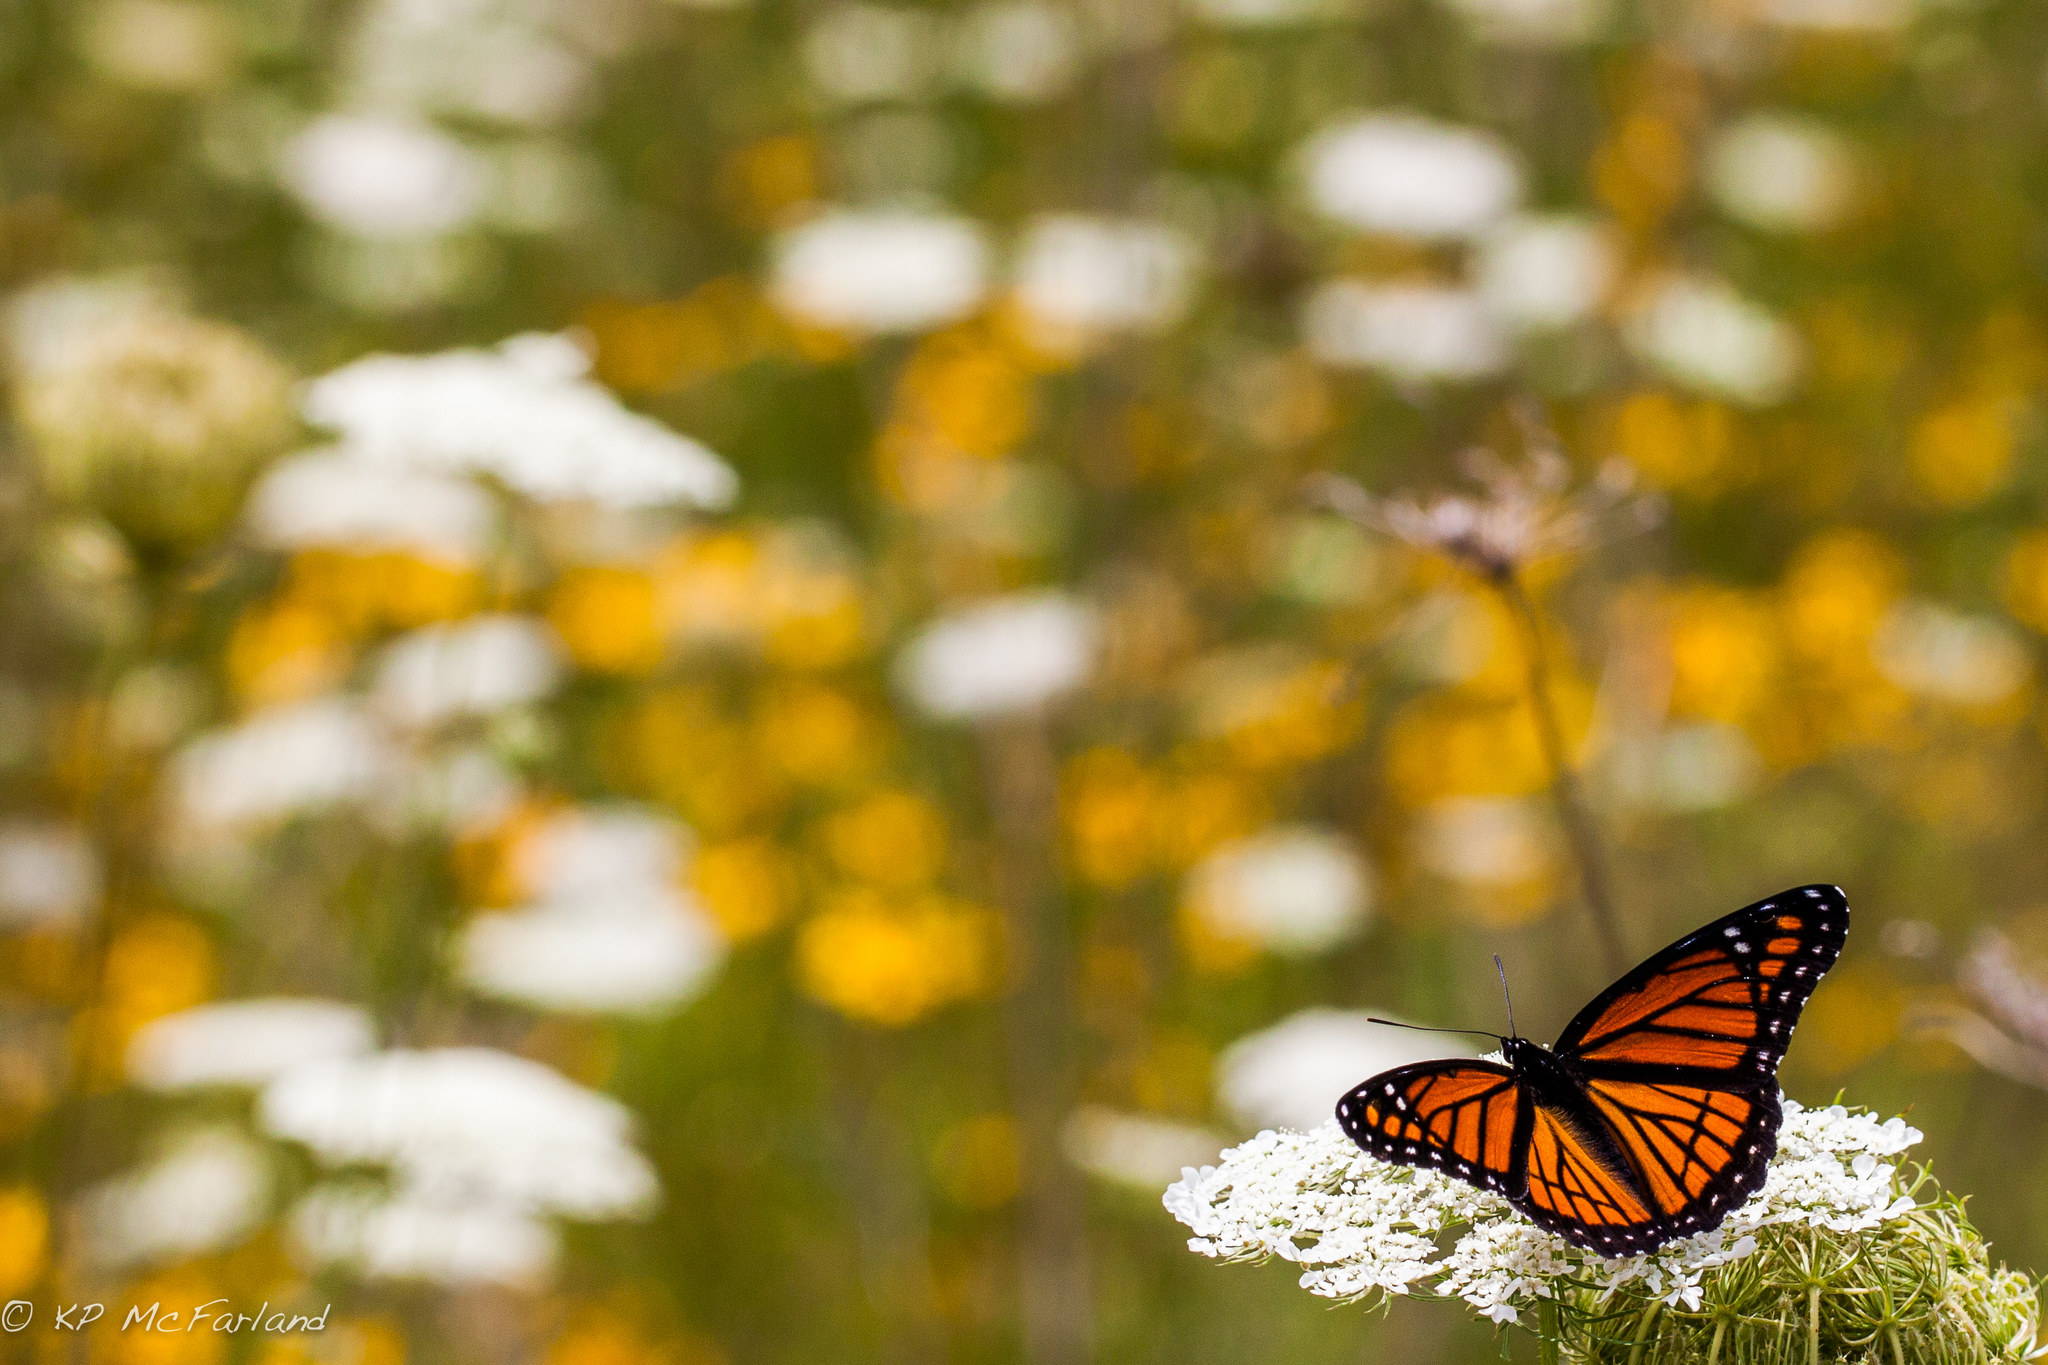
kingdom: Animalia
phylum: Arthropoda
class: Insecta
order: Lepidoptera
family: Nymphalidae
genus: Limenitis
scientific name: Limenitis archippus
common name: Viceroy
